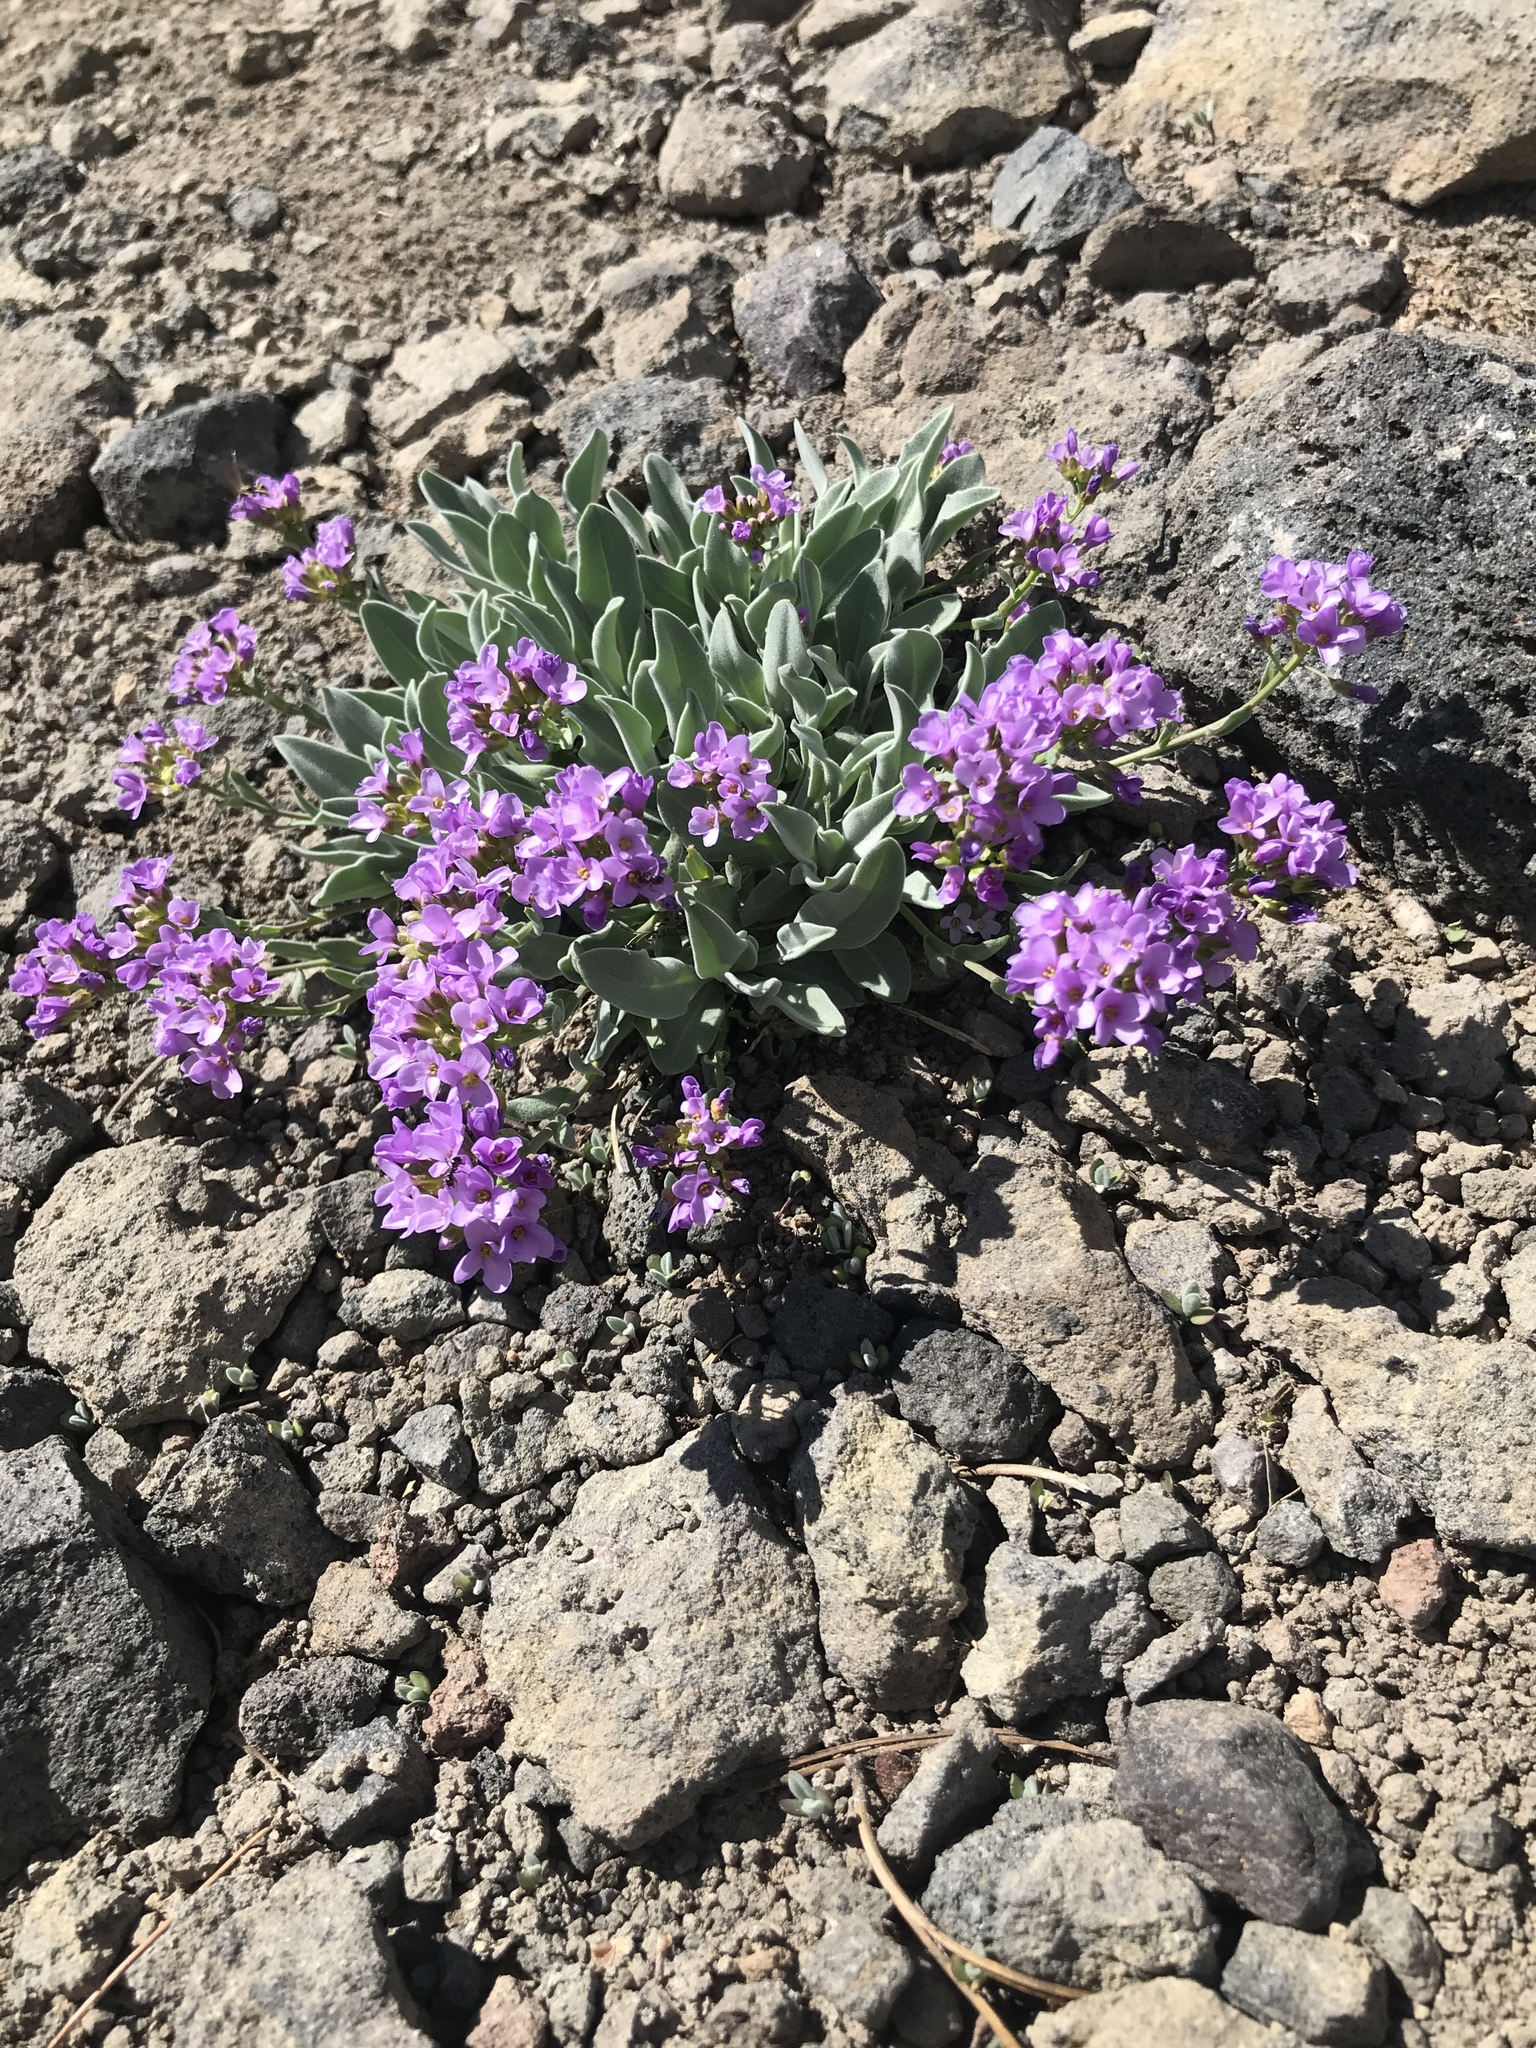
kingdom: Plantae
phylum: Tracheophyta
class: Magnoliopsida
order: Brassicales
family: Brassicaceae
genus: Phoenicaulis
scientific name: Phoenicaulis cheiranthoides
